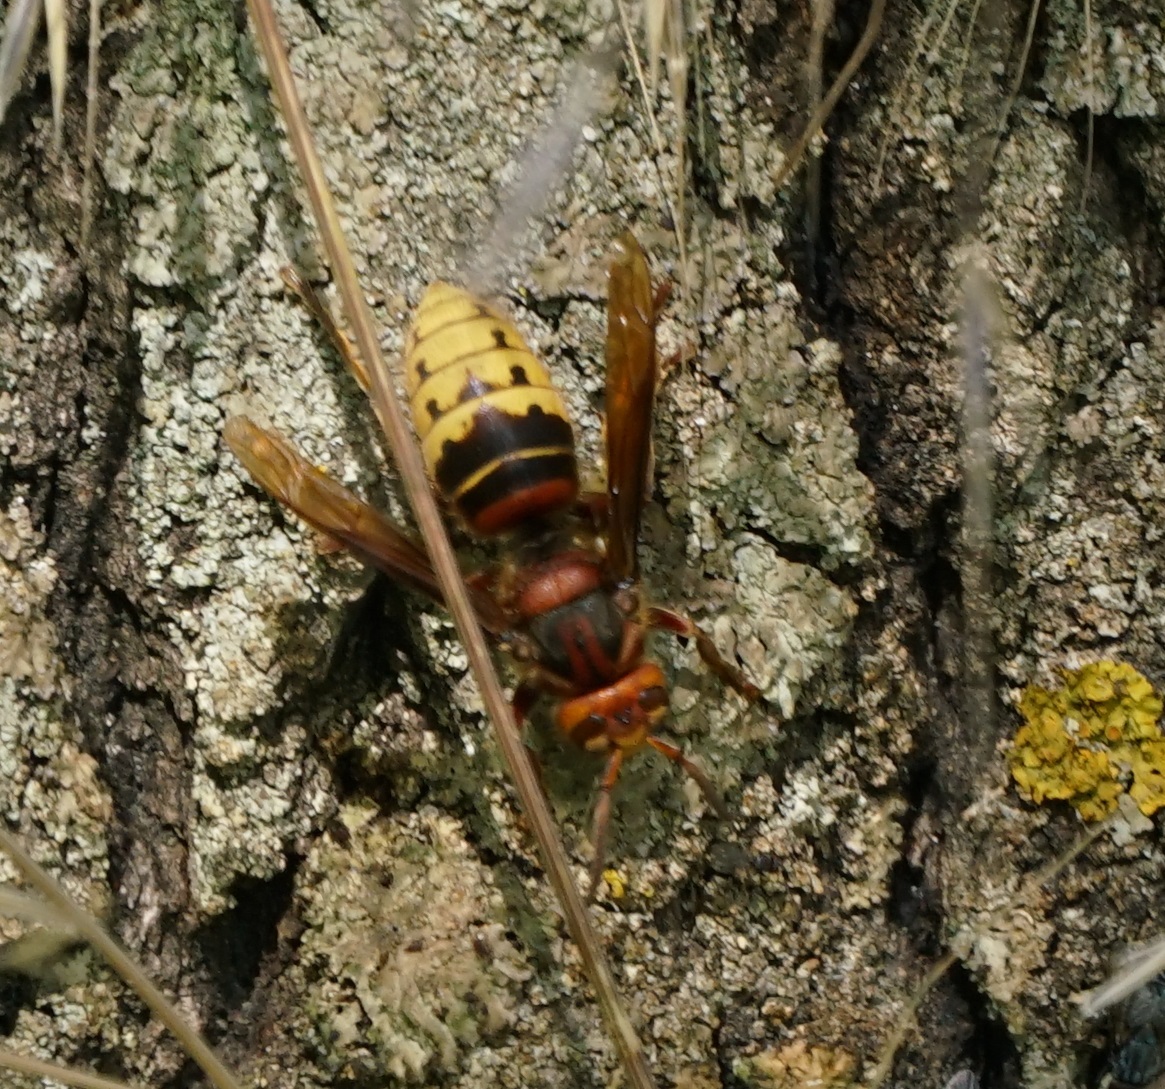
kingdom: Animalia
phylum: Arthropoda
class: Insecta
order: Hymenoptera
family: Vespidae
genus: Vespa
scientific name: Vespa crabro
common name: Hornet
